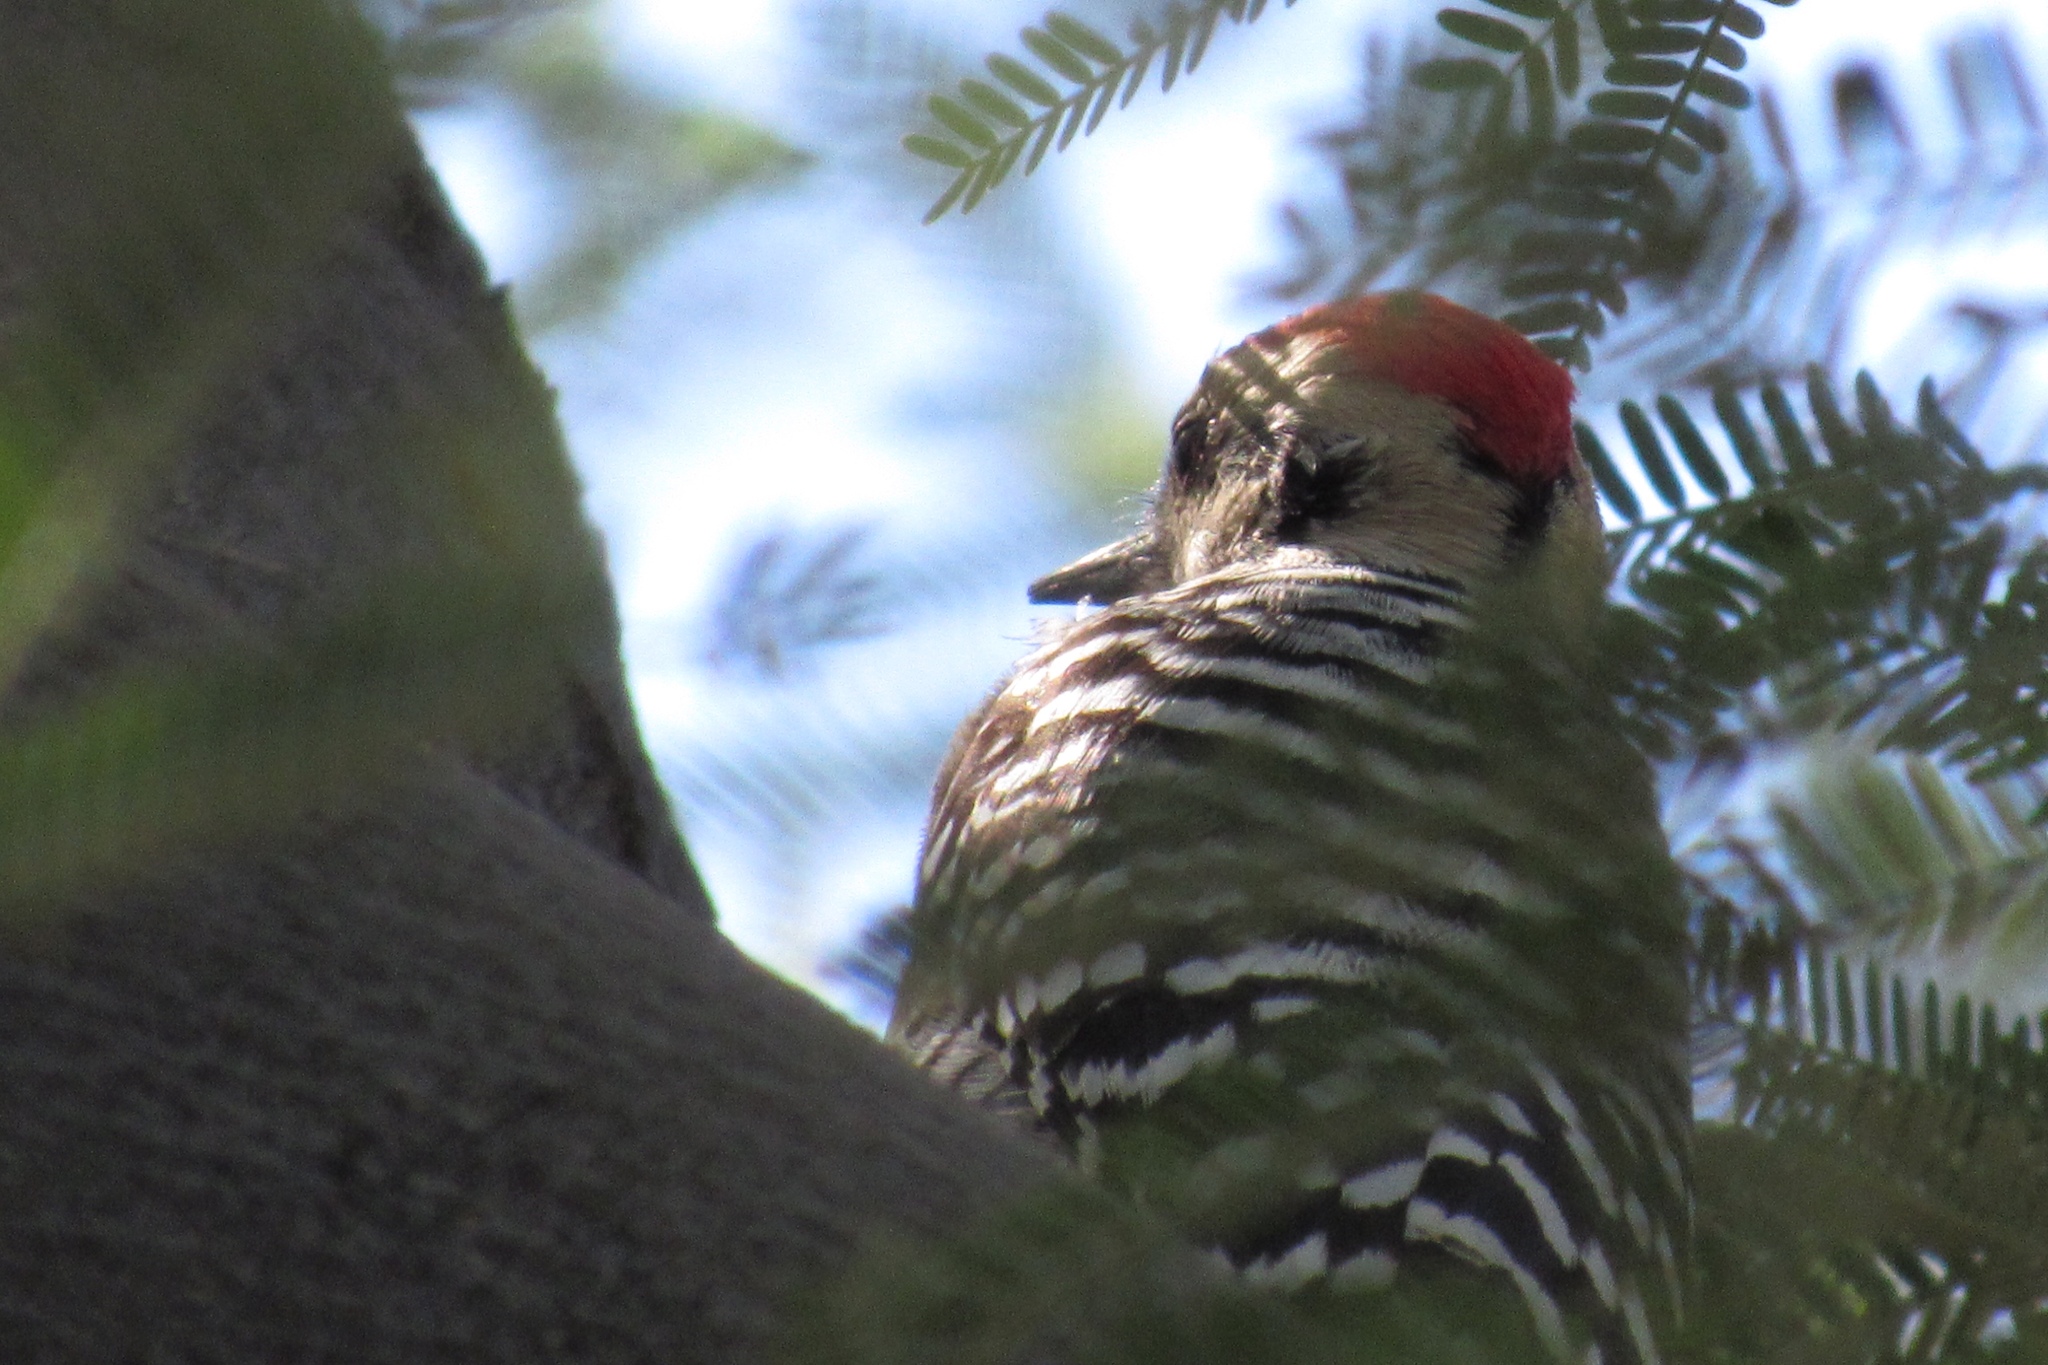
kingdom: Animalia
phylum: Chordata
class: Aves
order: Piciformes
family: Picidae
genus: Dryobates
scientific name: Dryobates scalaris
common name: Ladder-backed woodpecker
